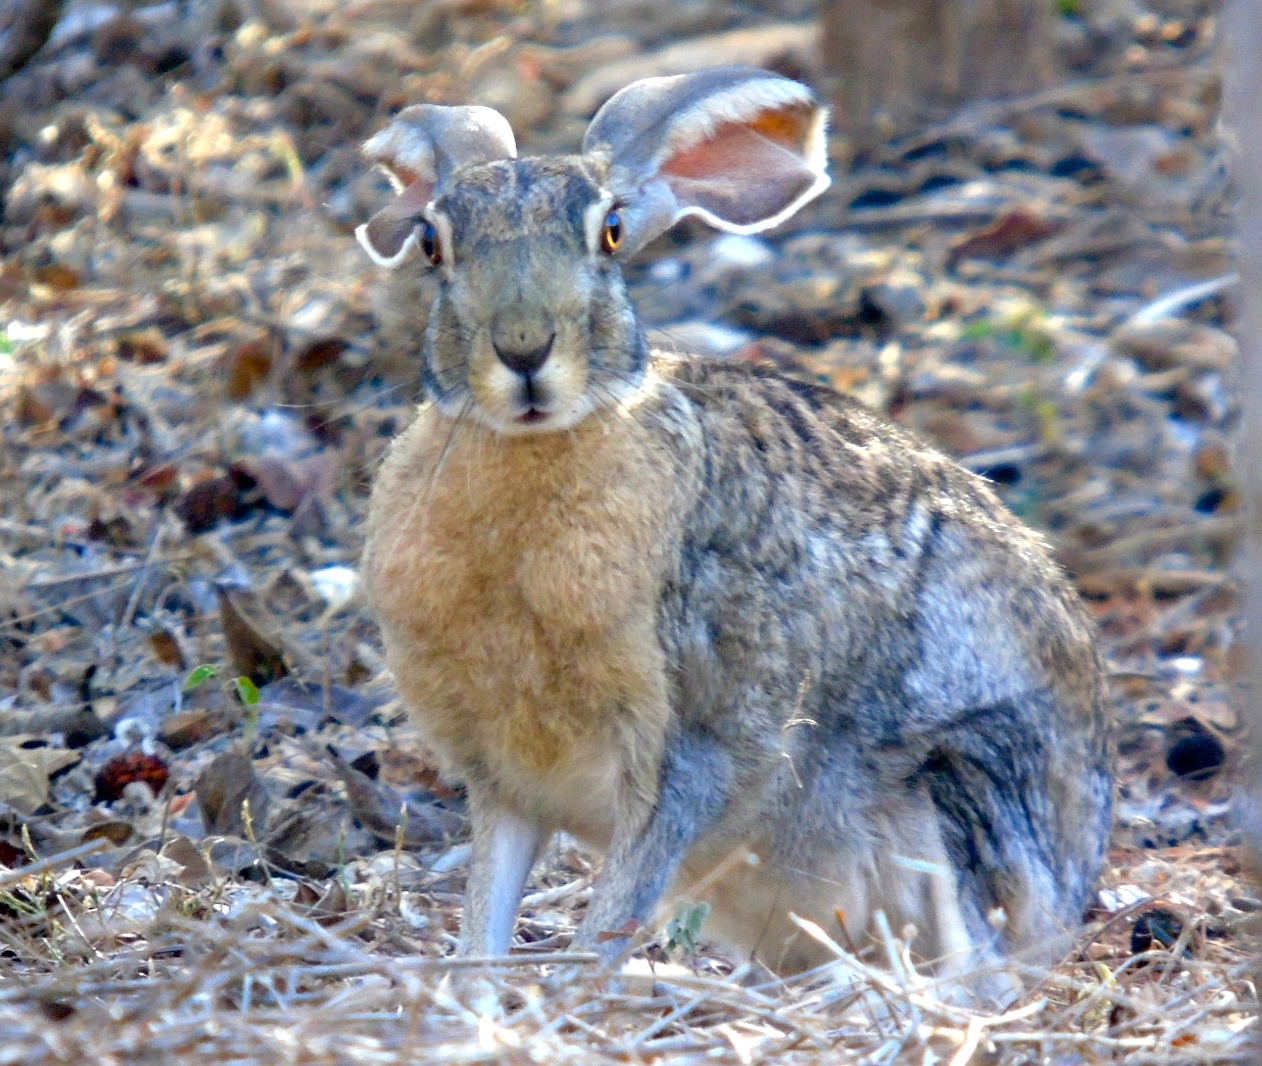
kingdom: Animalia
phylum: Chordata
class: Mammalia
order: Lagomorpha
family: Leporidae
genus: Lepus
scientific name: Lepus alleni
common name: Antelope jackrabbit
